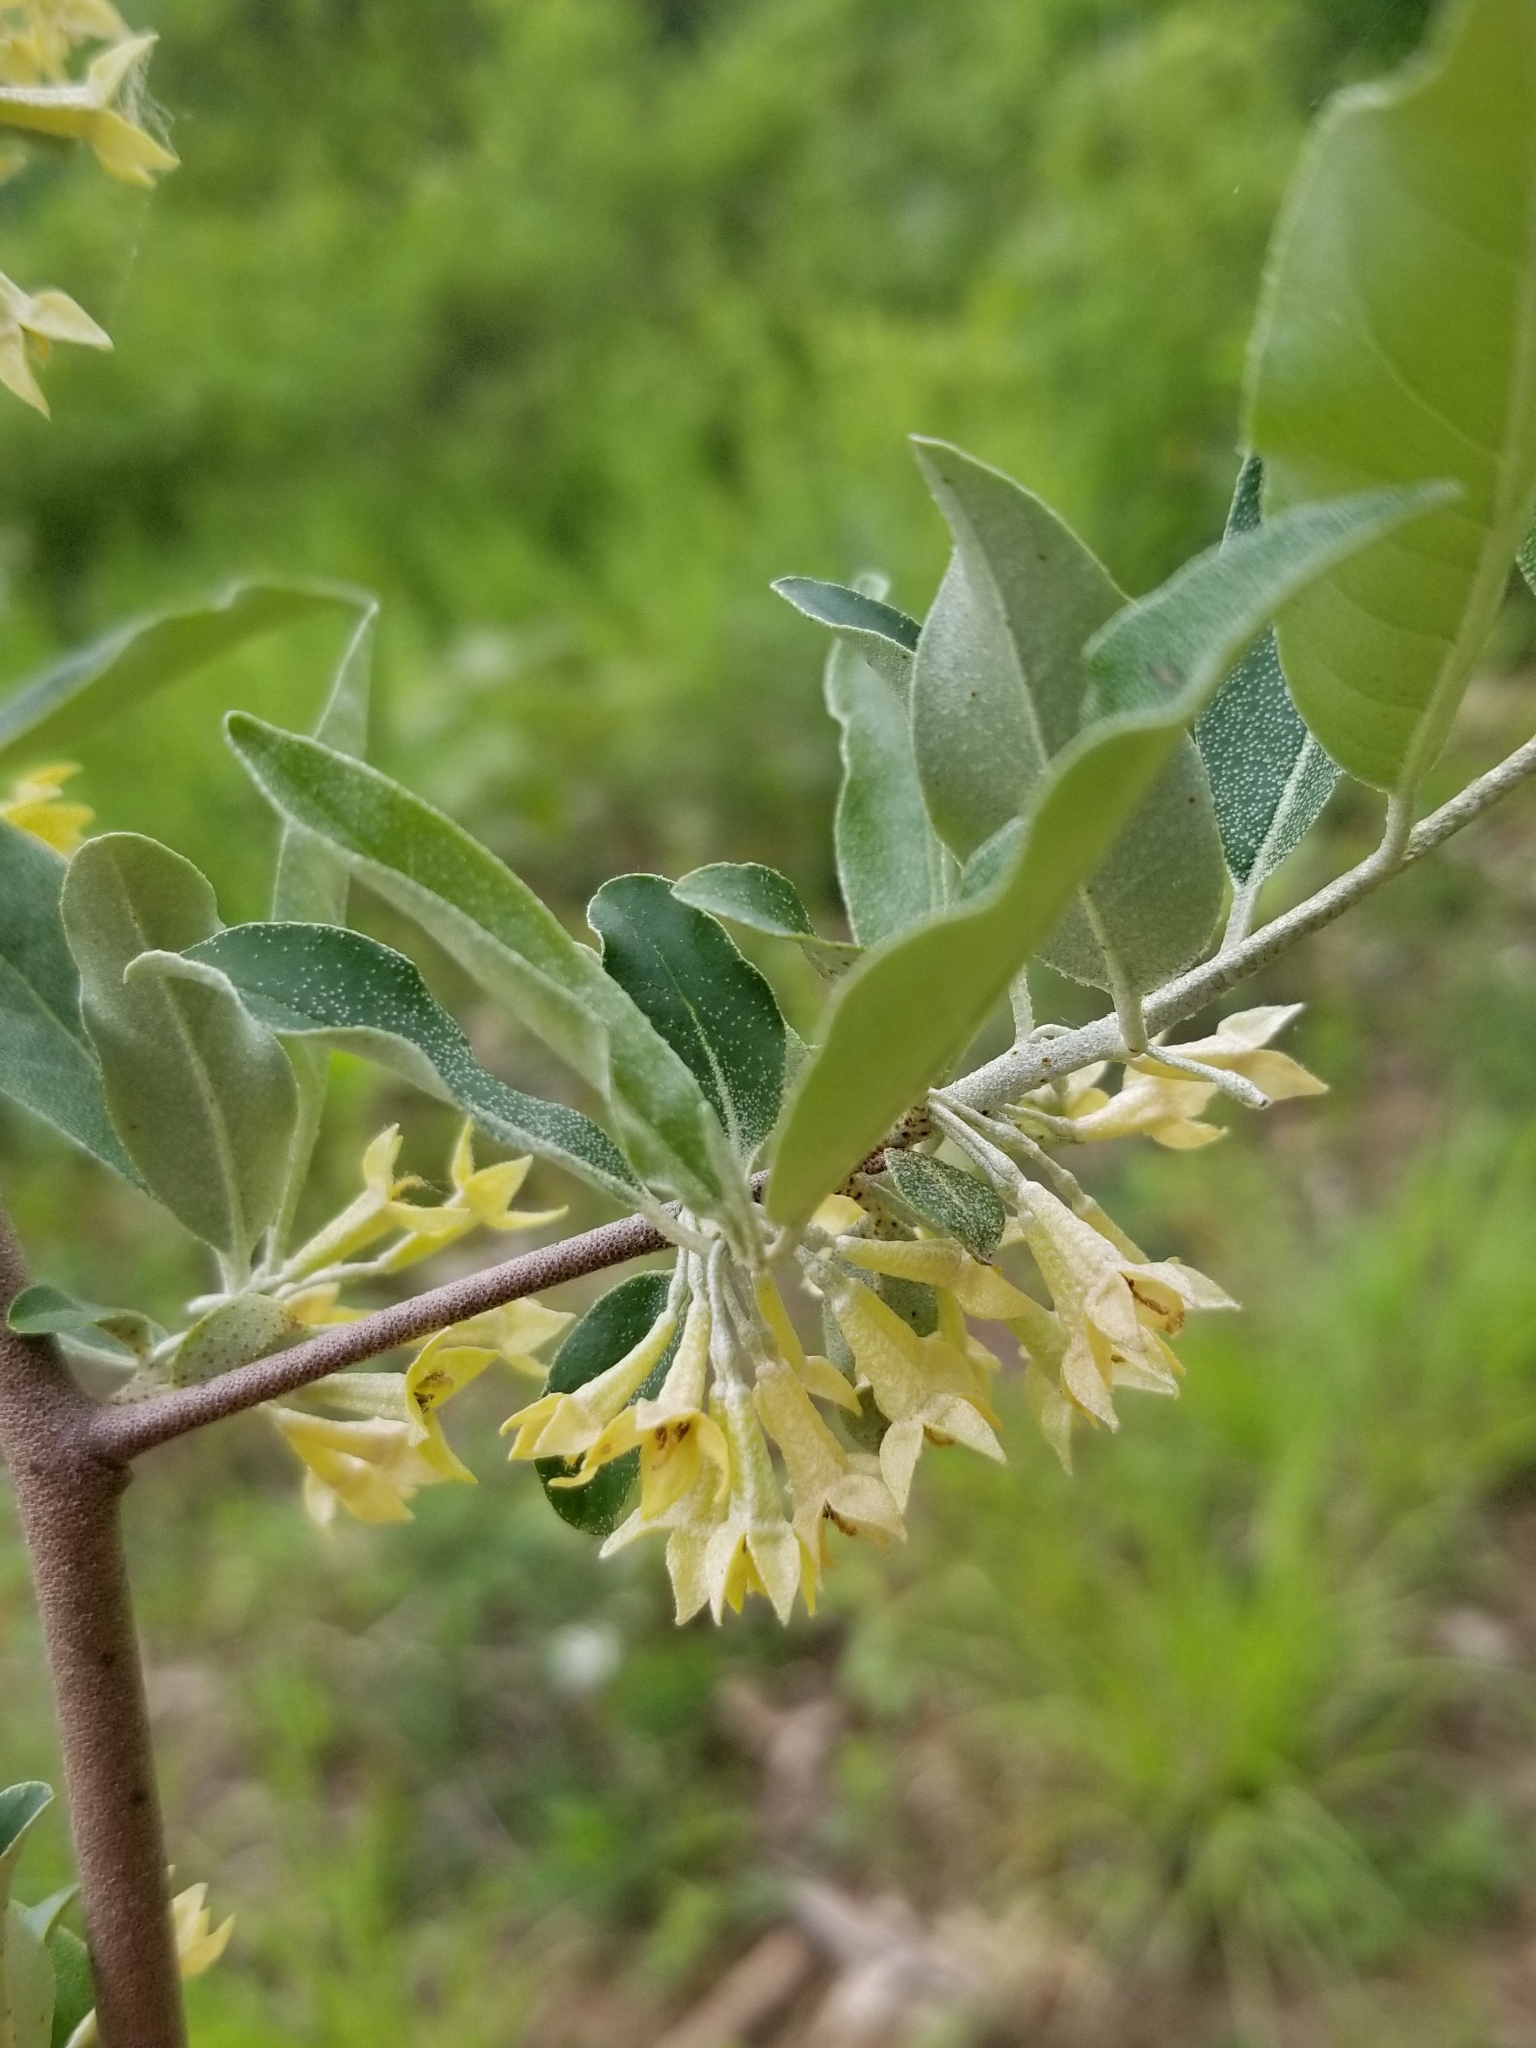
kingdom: Plantae
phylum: Tracheophyta
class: Magnoliopsida
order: Rosales
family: Elaeagnaceae
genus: Elaeagnus
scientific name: Elaeagnus umbellata
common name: Autumn olive
